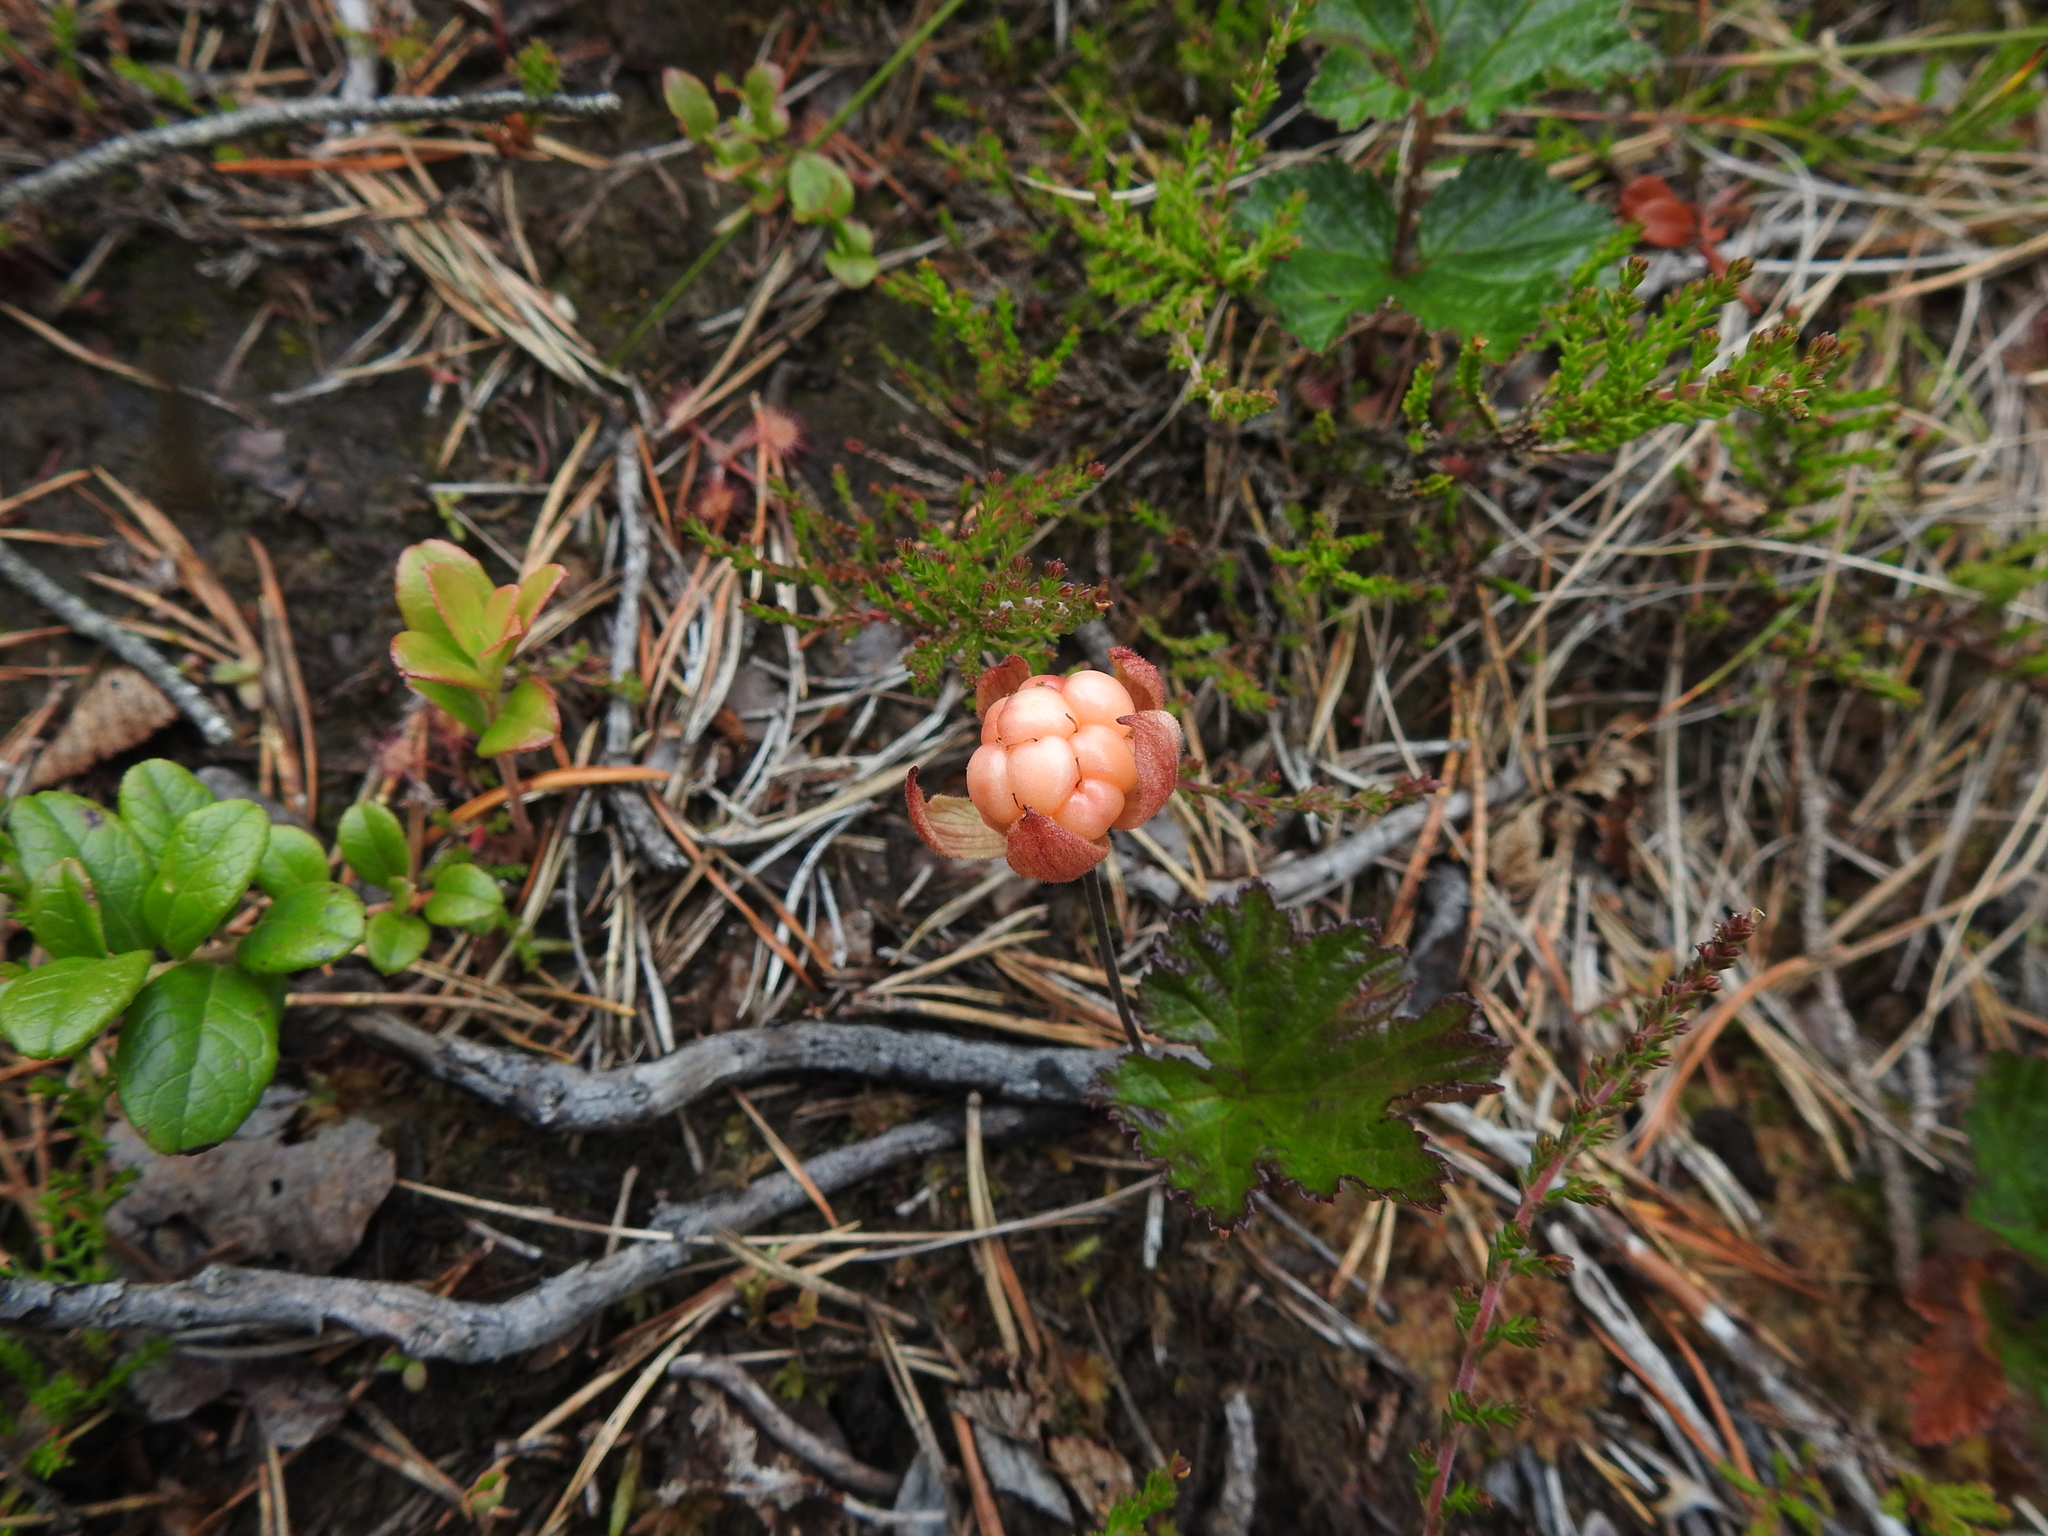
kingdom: Plantae
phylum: Tracheophyta
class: Magnoliopsida
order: Rosales
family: Rosaceae
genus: Rubus
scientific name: Rubus chamaemorus
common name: Cloudberry
